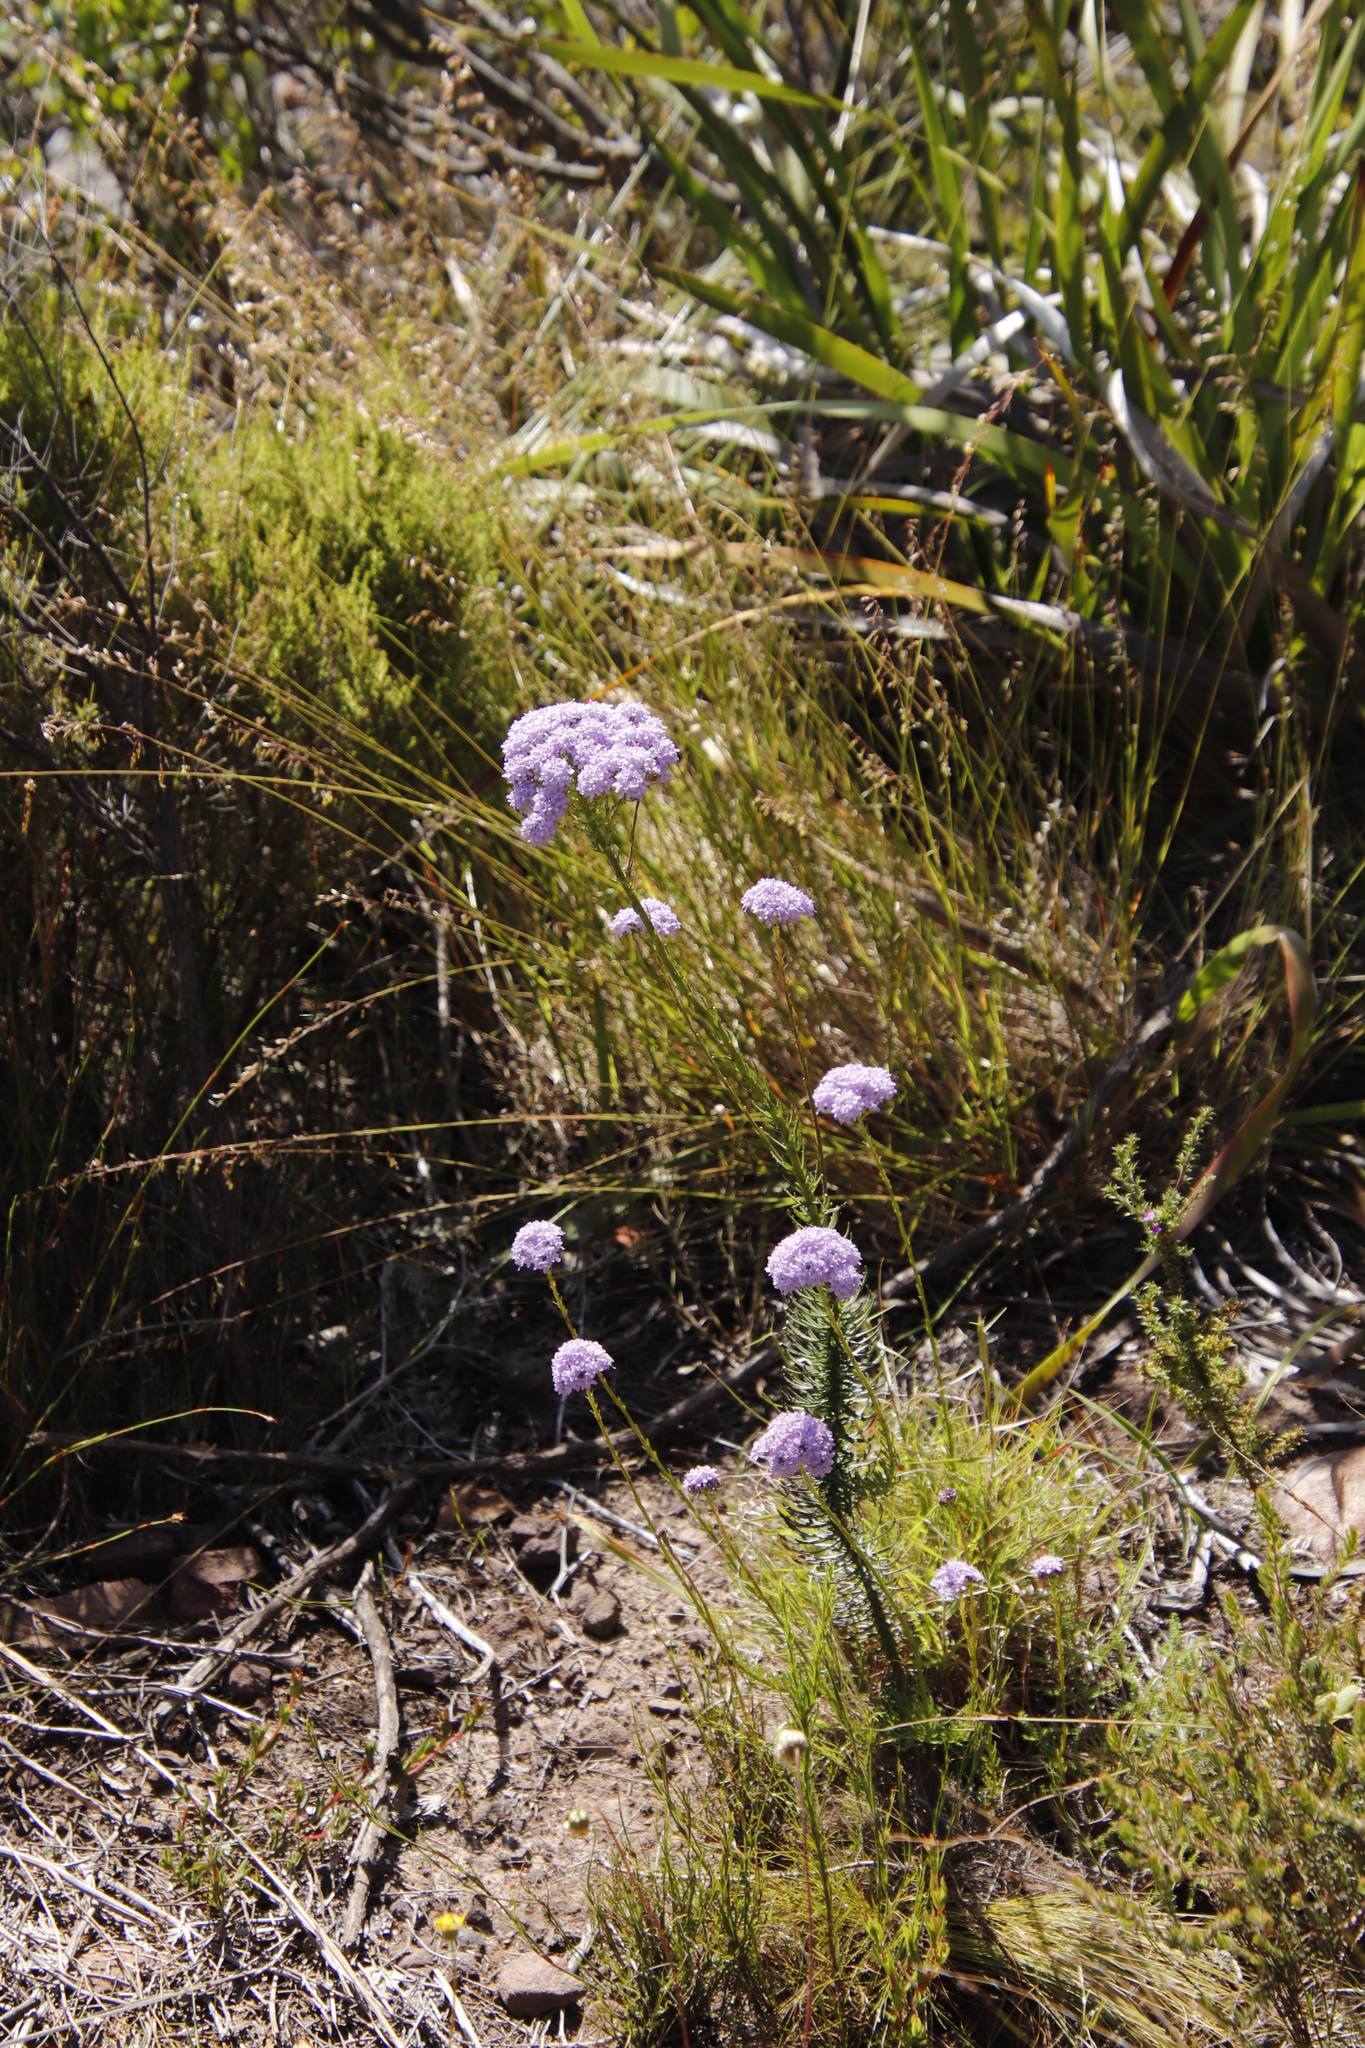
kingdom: Plantae
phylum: Tracheophyta
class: Magnoliopsida
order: Lamiales
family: Scrophulariaceae
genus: Pseudoselago
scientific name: Pseudoselago spuria
